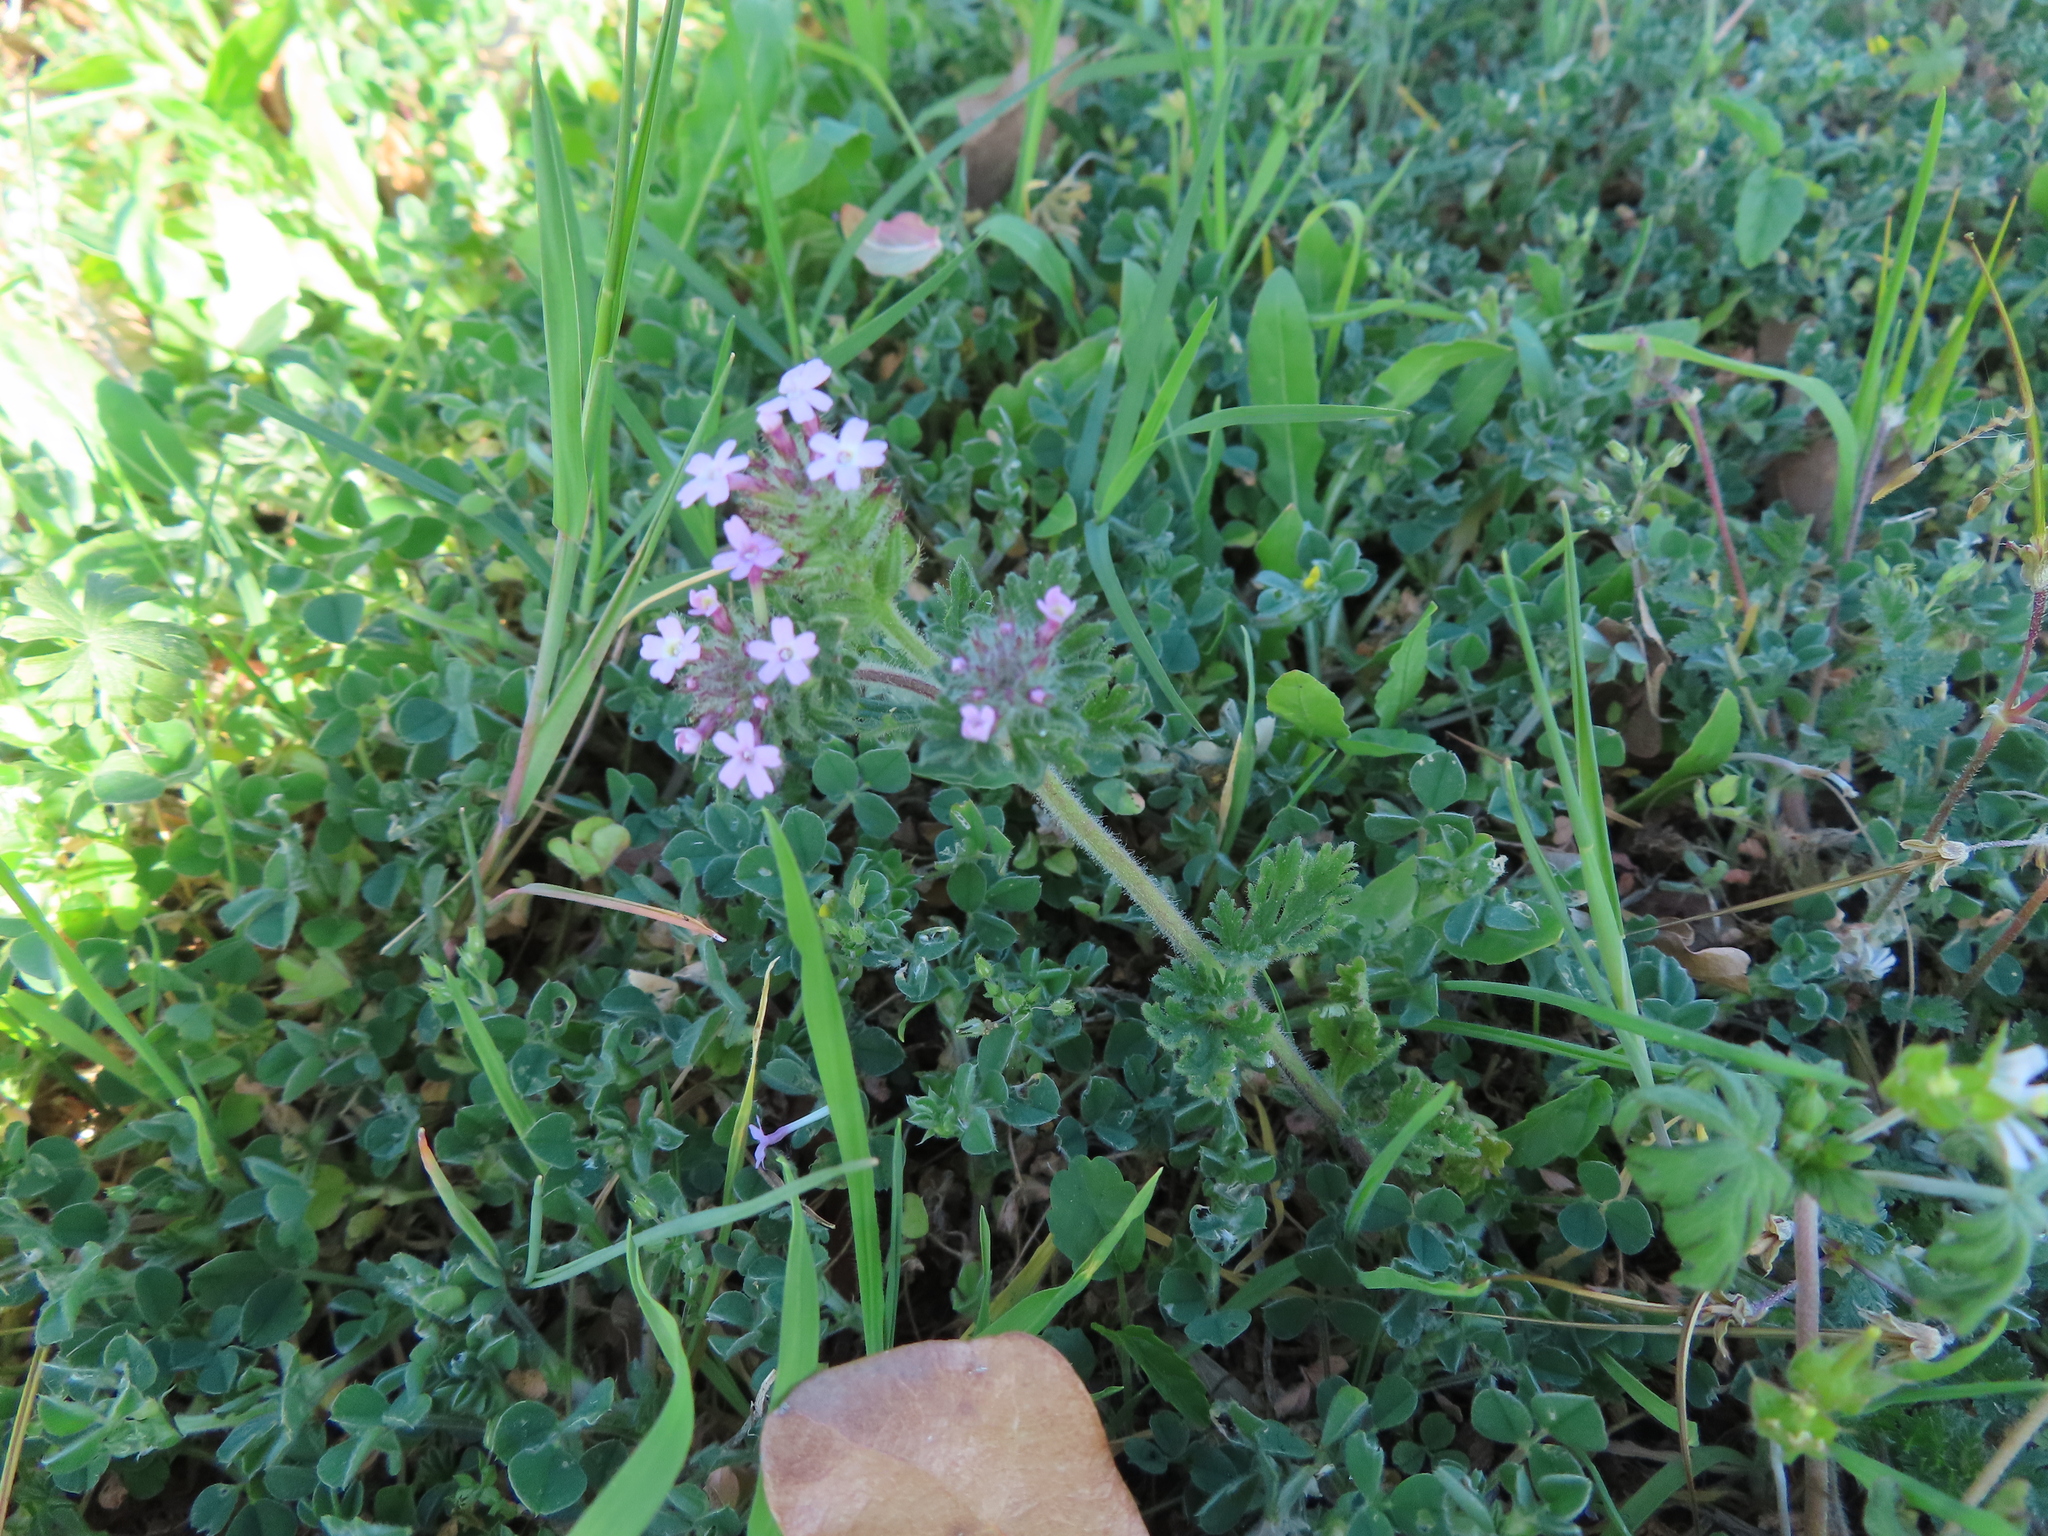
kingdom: Plantae
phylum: Tracheophyta
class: Magnoliopsida
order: Lamiales
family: Verbenaceae
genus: Verbena
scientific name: Verbena pumila
